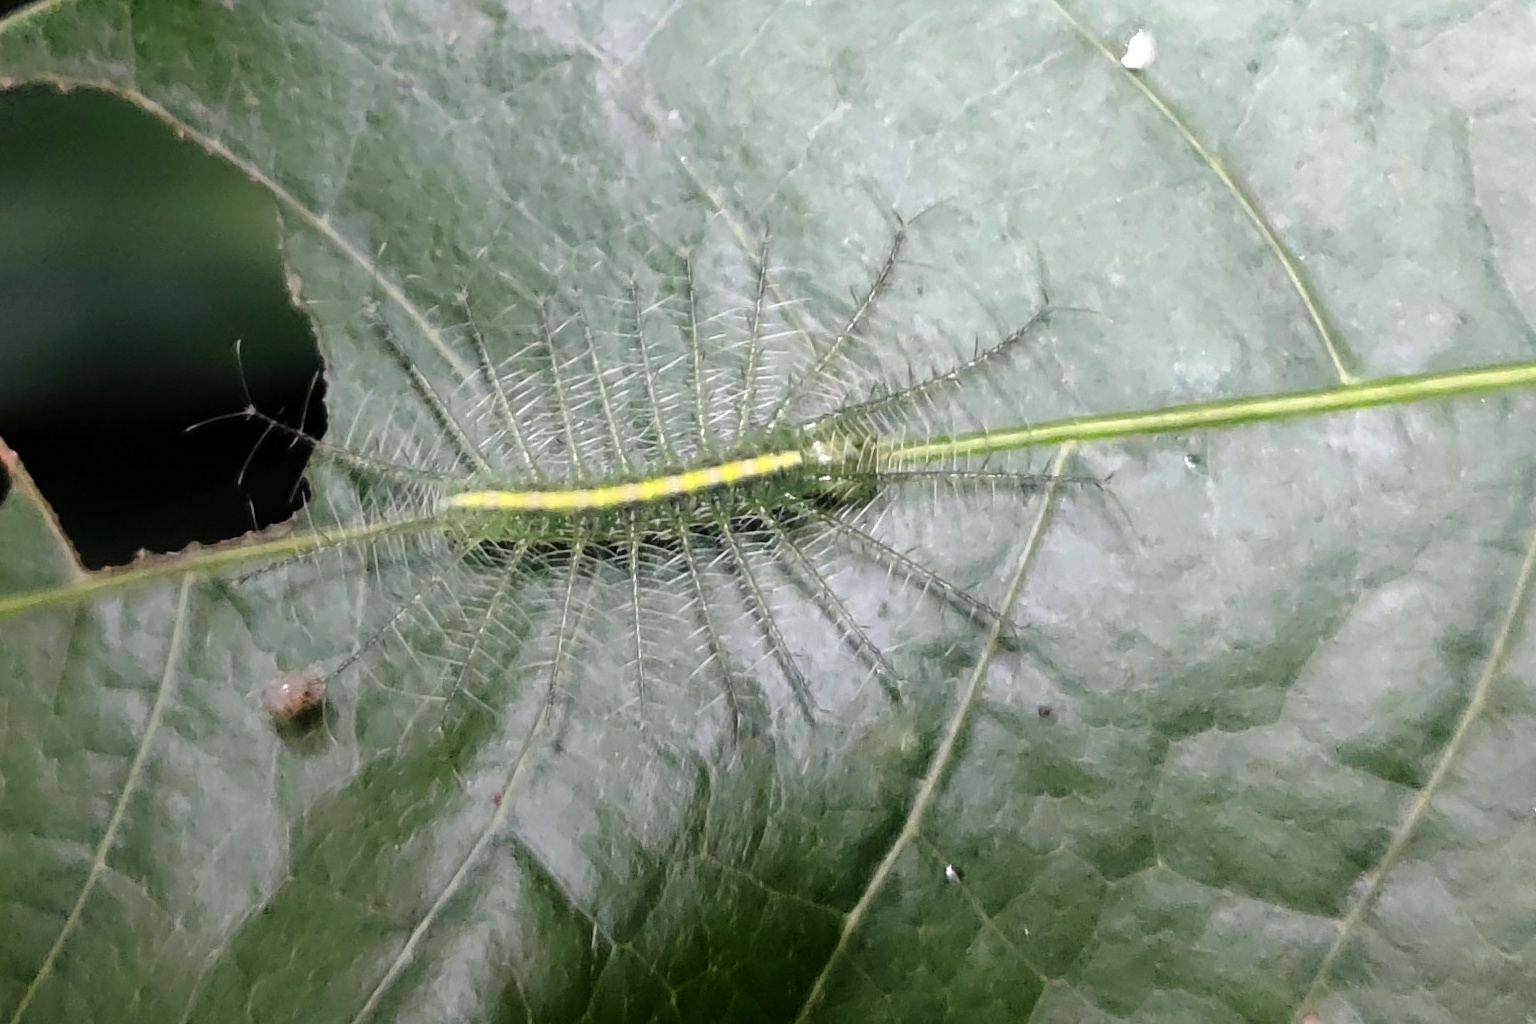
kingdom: Animalia
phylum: Arthropoda
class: Insecta
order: Lepidoptera
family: Nymphalidae
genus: Euthalia
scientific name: Euthalia aconthea
